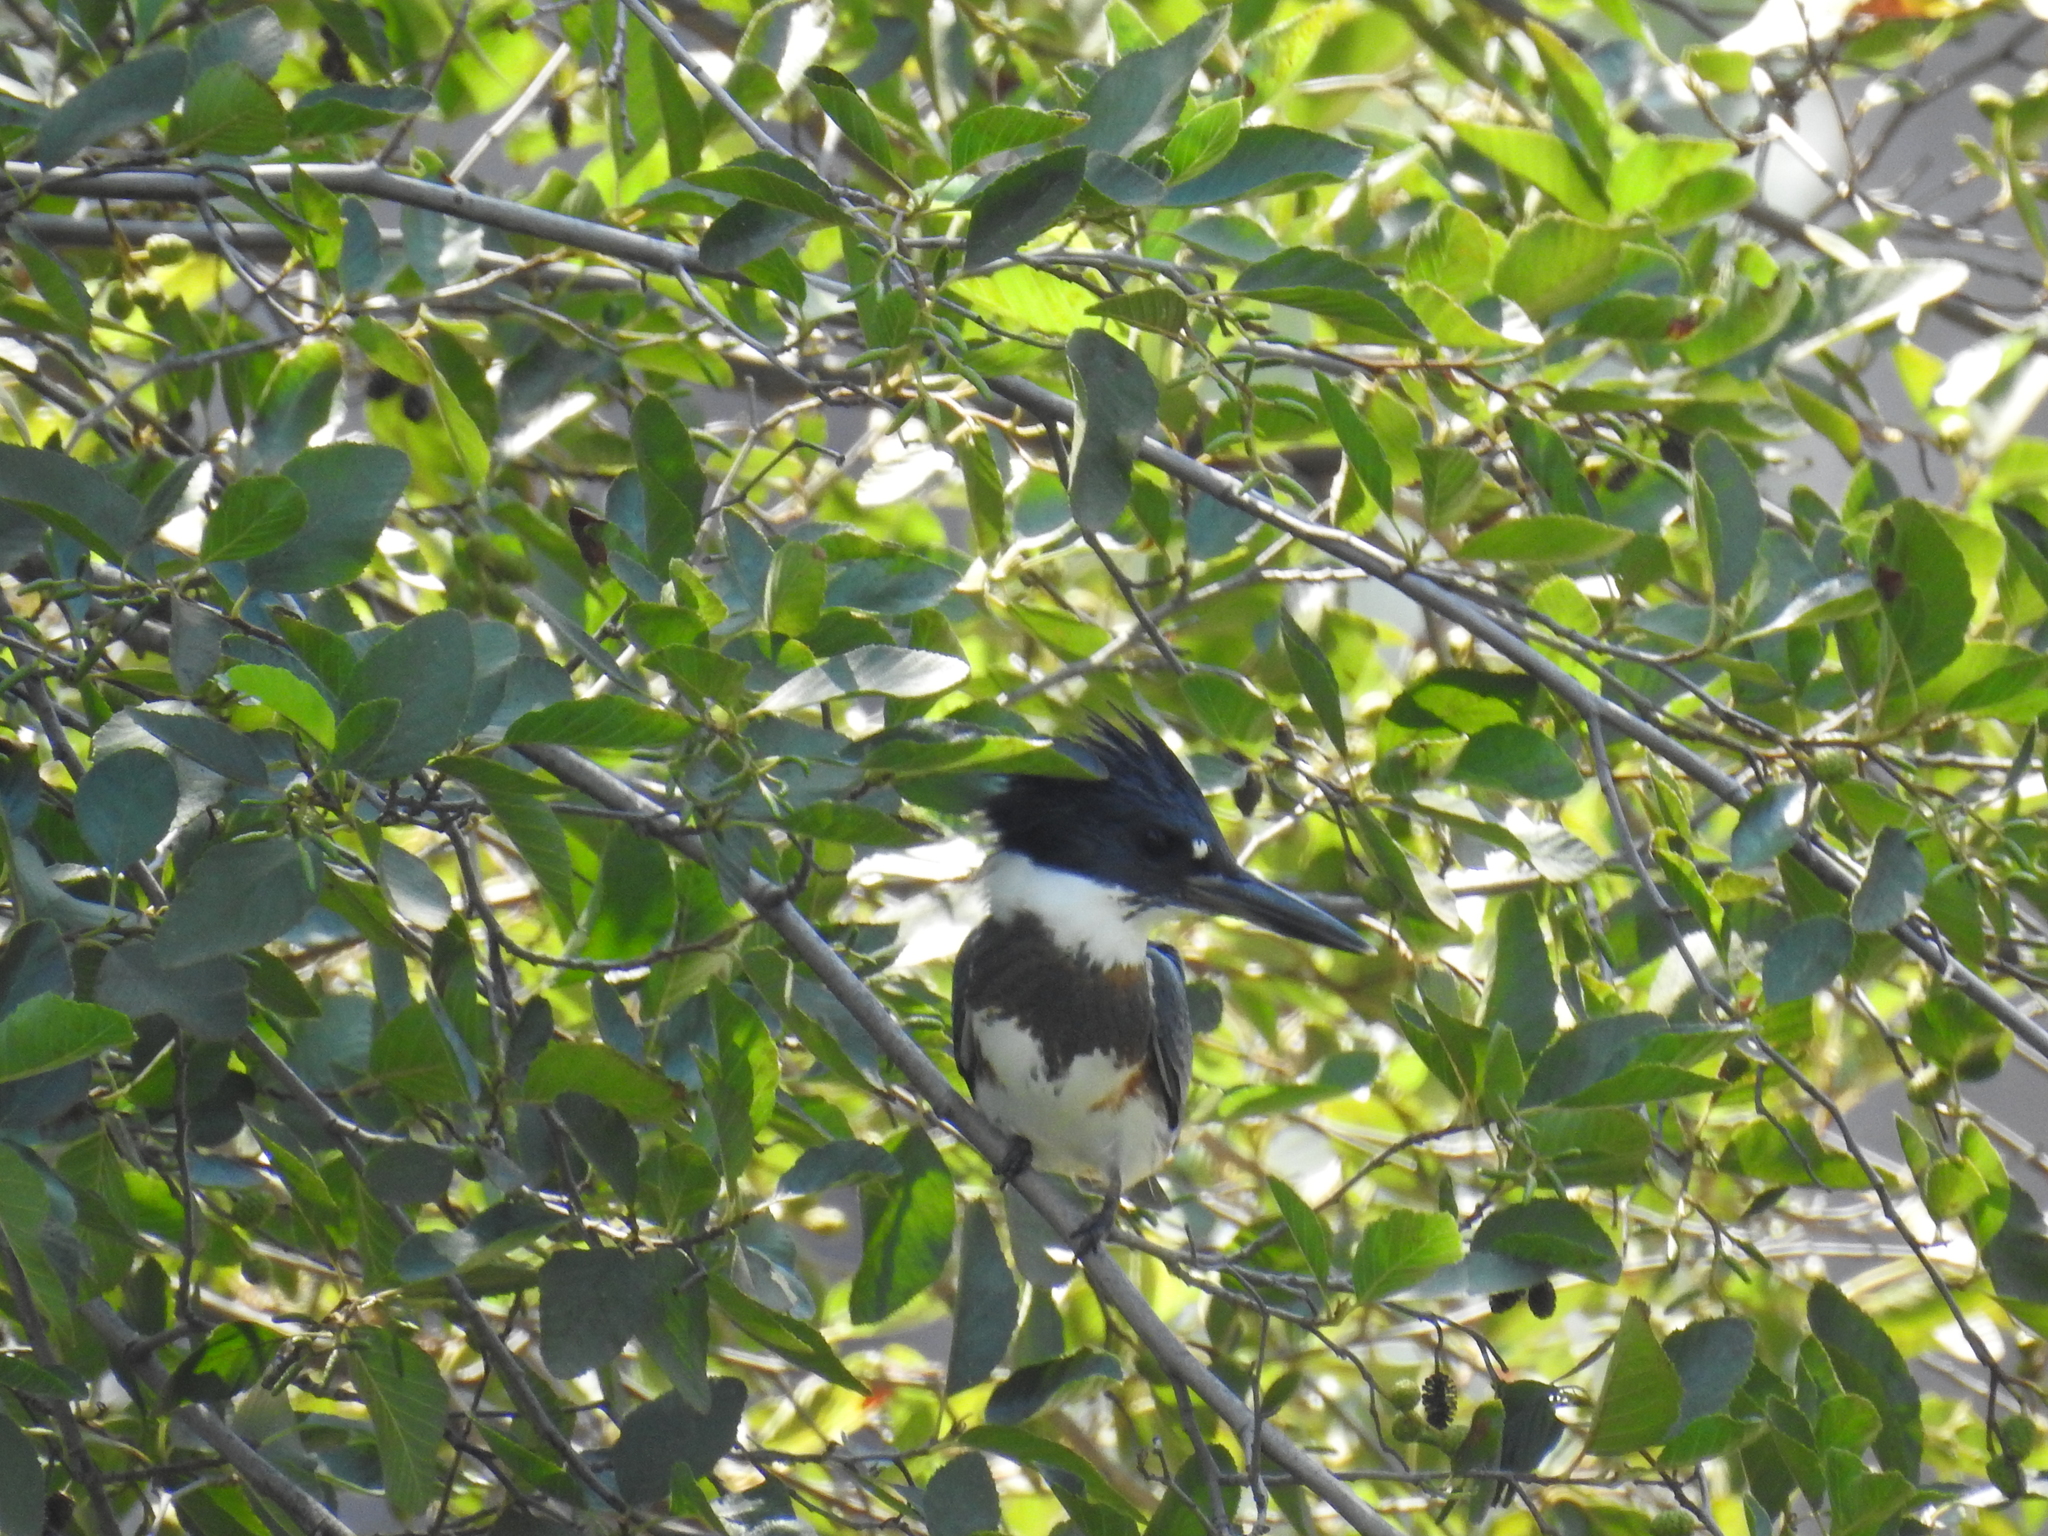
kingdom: Animalia
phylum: Chordata
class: Aves
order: Coraciiformes
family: Alcedinidae
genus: Megaceryle
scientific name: Megaceryle alcyon
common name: Belted kingfisher
